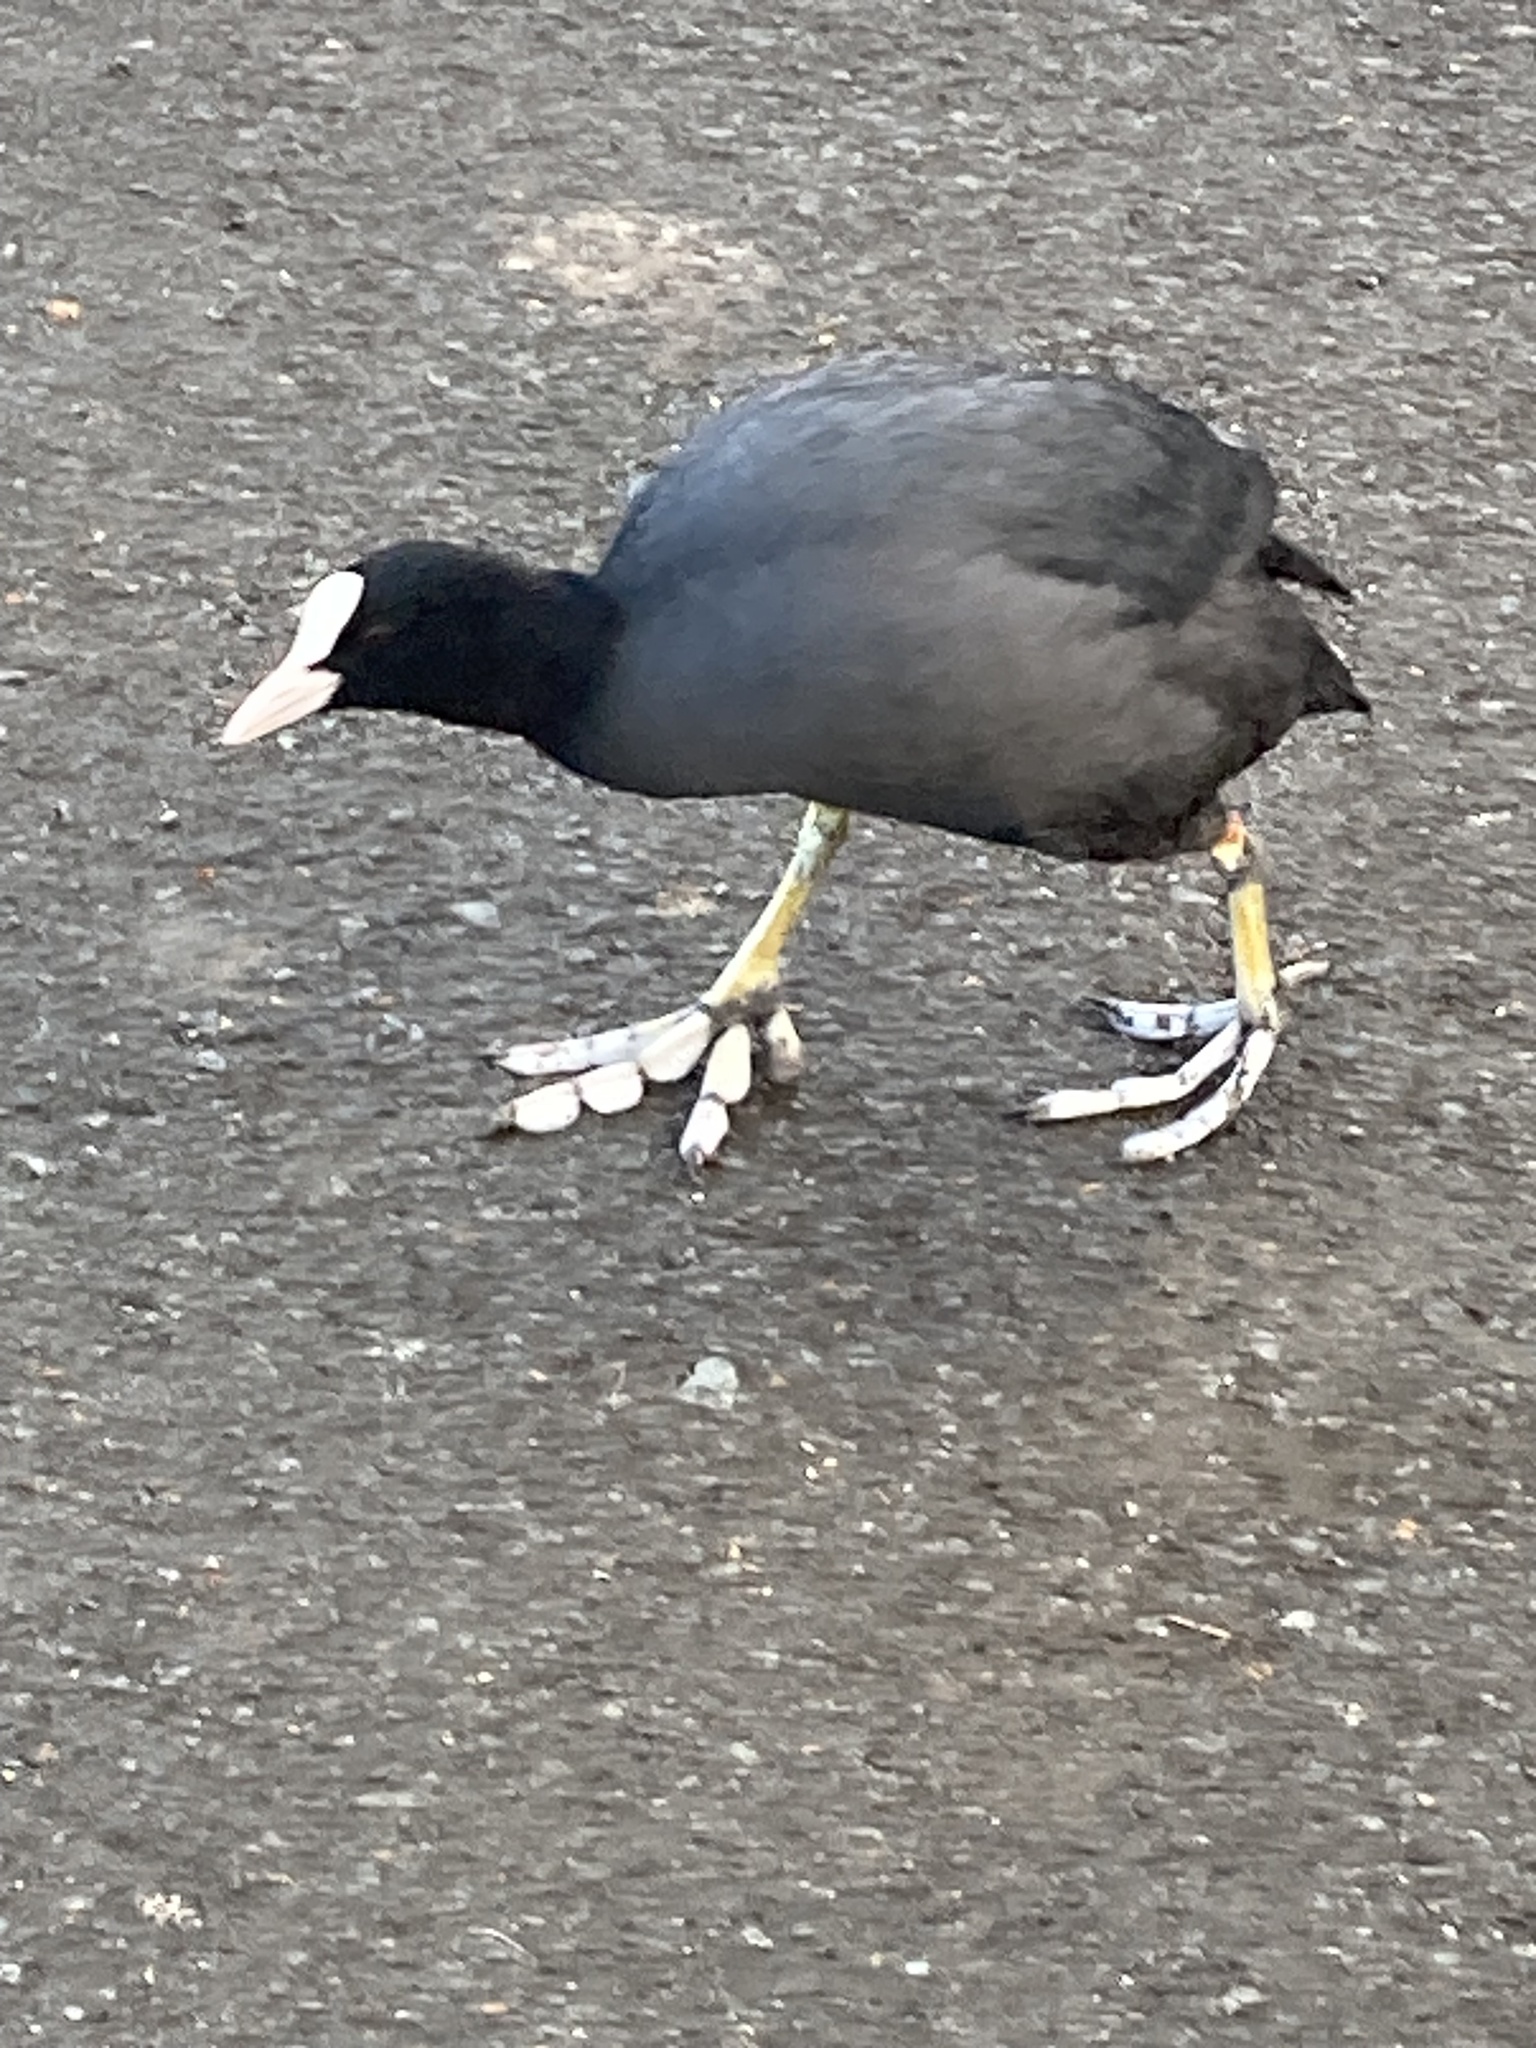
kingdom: Animalia
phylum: Chordata
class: Aves
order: Gruiformes
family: Rallidae
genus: Fulica
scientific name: Fulica atra
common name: Eurasian coot
